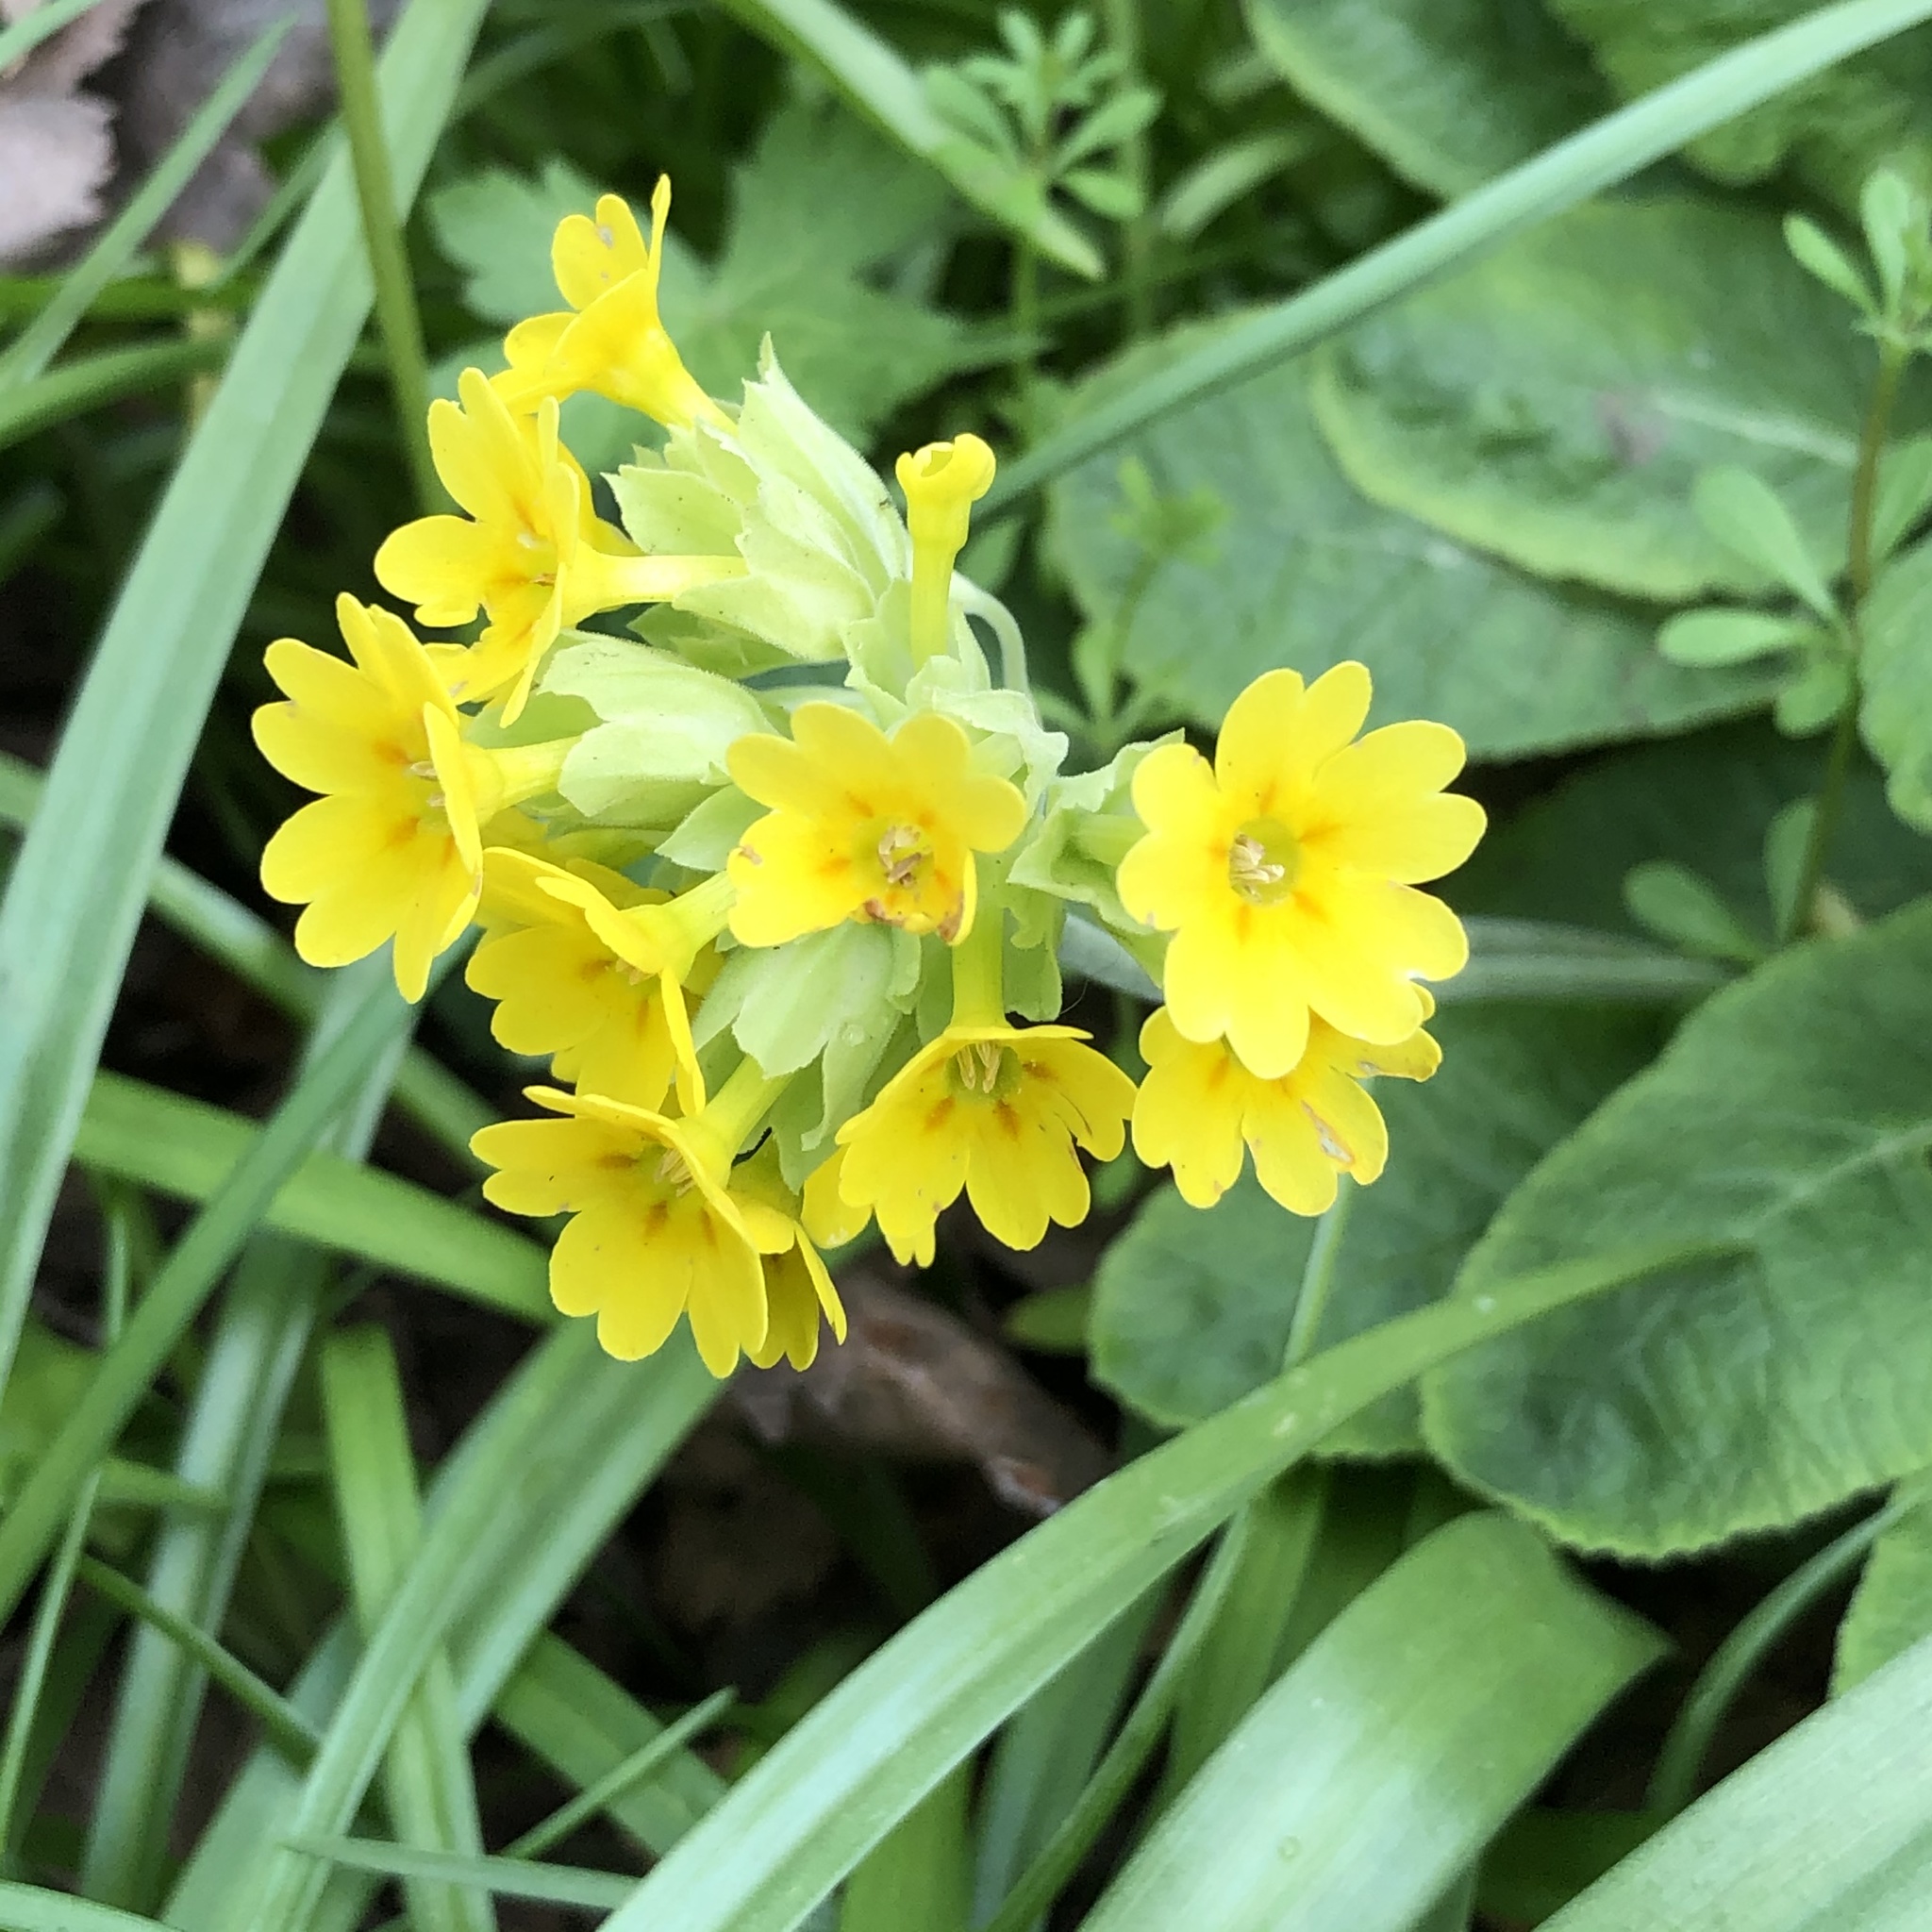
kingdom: Plantae
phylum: Tracheophyta
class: Magnoliopsida
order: Ericales
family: Primulaceae
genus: Primula
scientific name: Primula veris
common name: Cowslip
